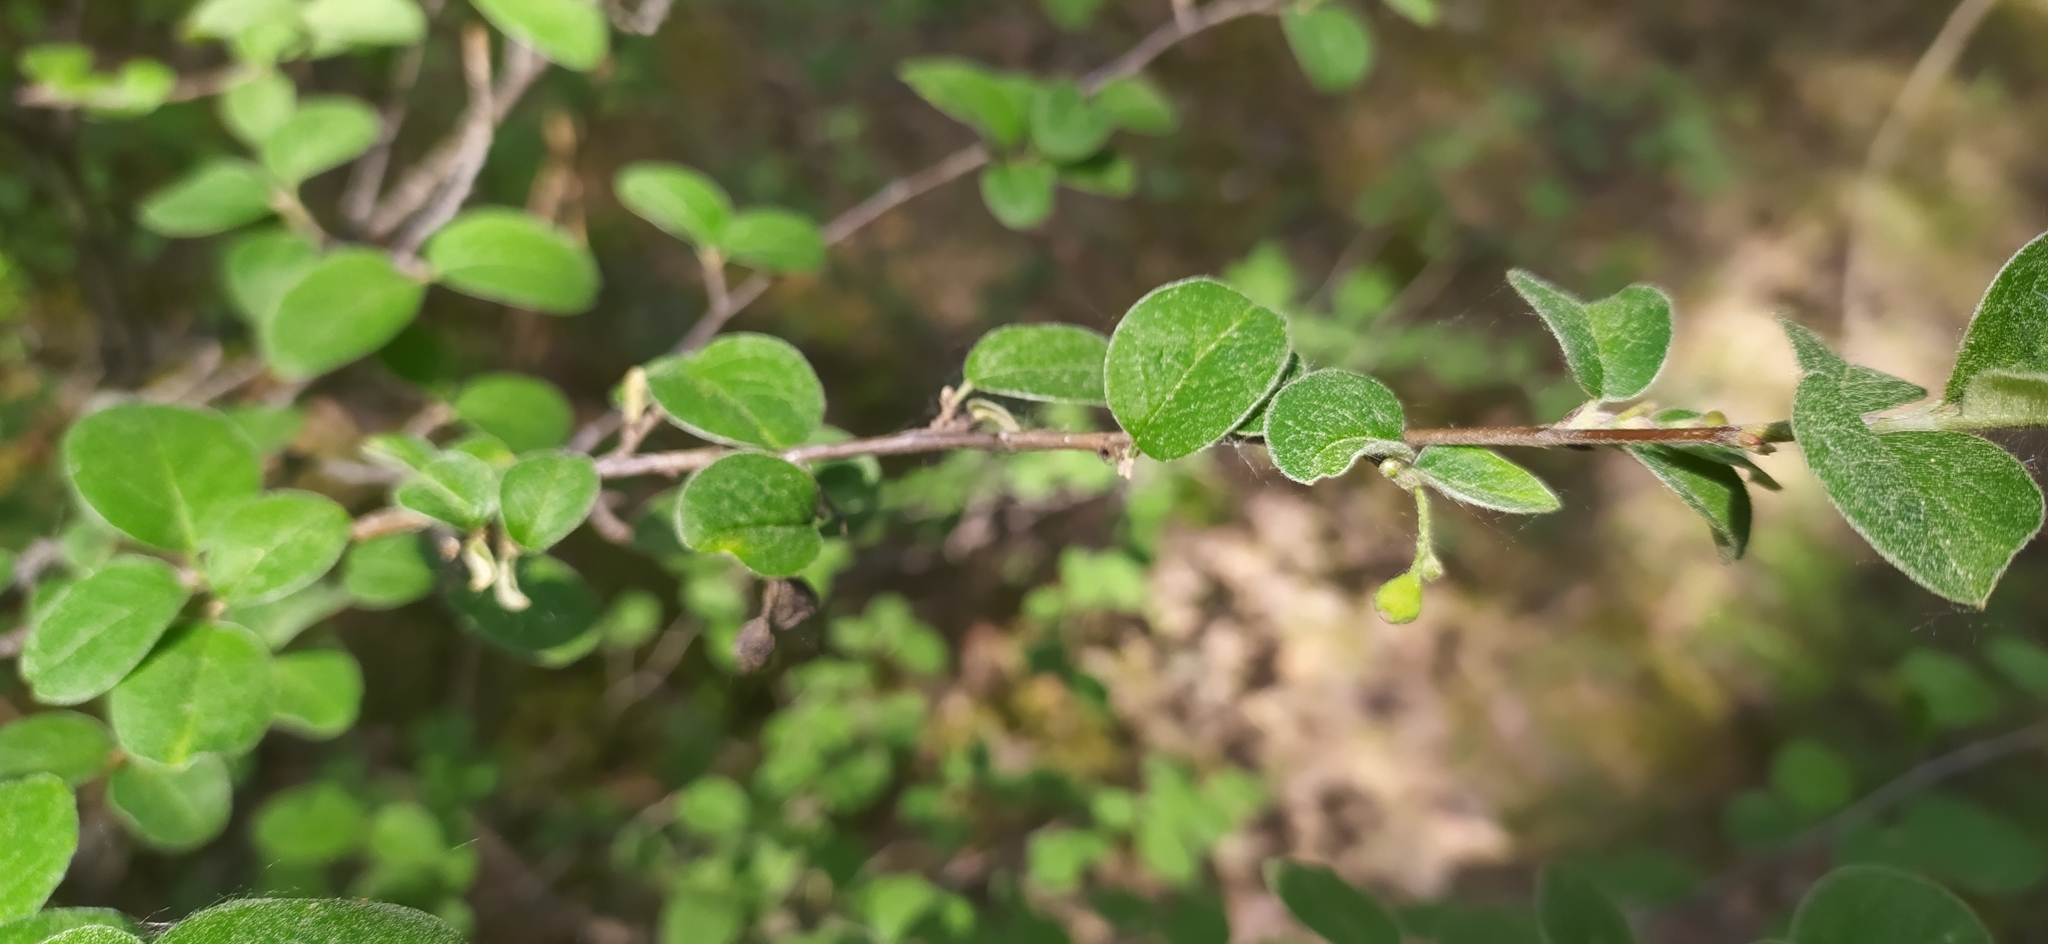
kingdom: Plantae
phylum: Tracheophyta
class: Magnoliopsida
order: Rosales
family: Rosaceae
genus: Cotoneaster
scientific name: Cotoneaster melanocarpus
